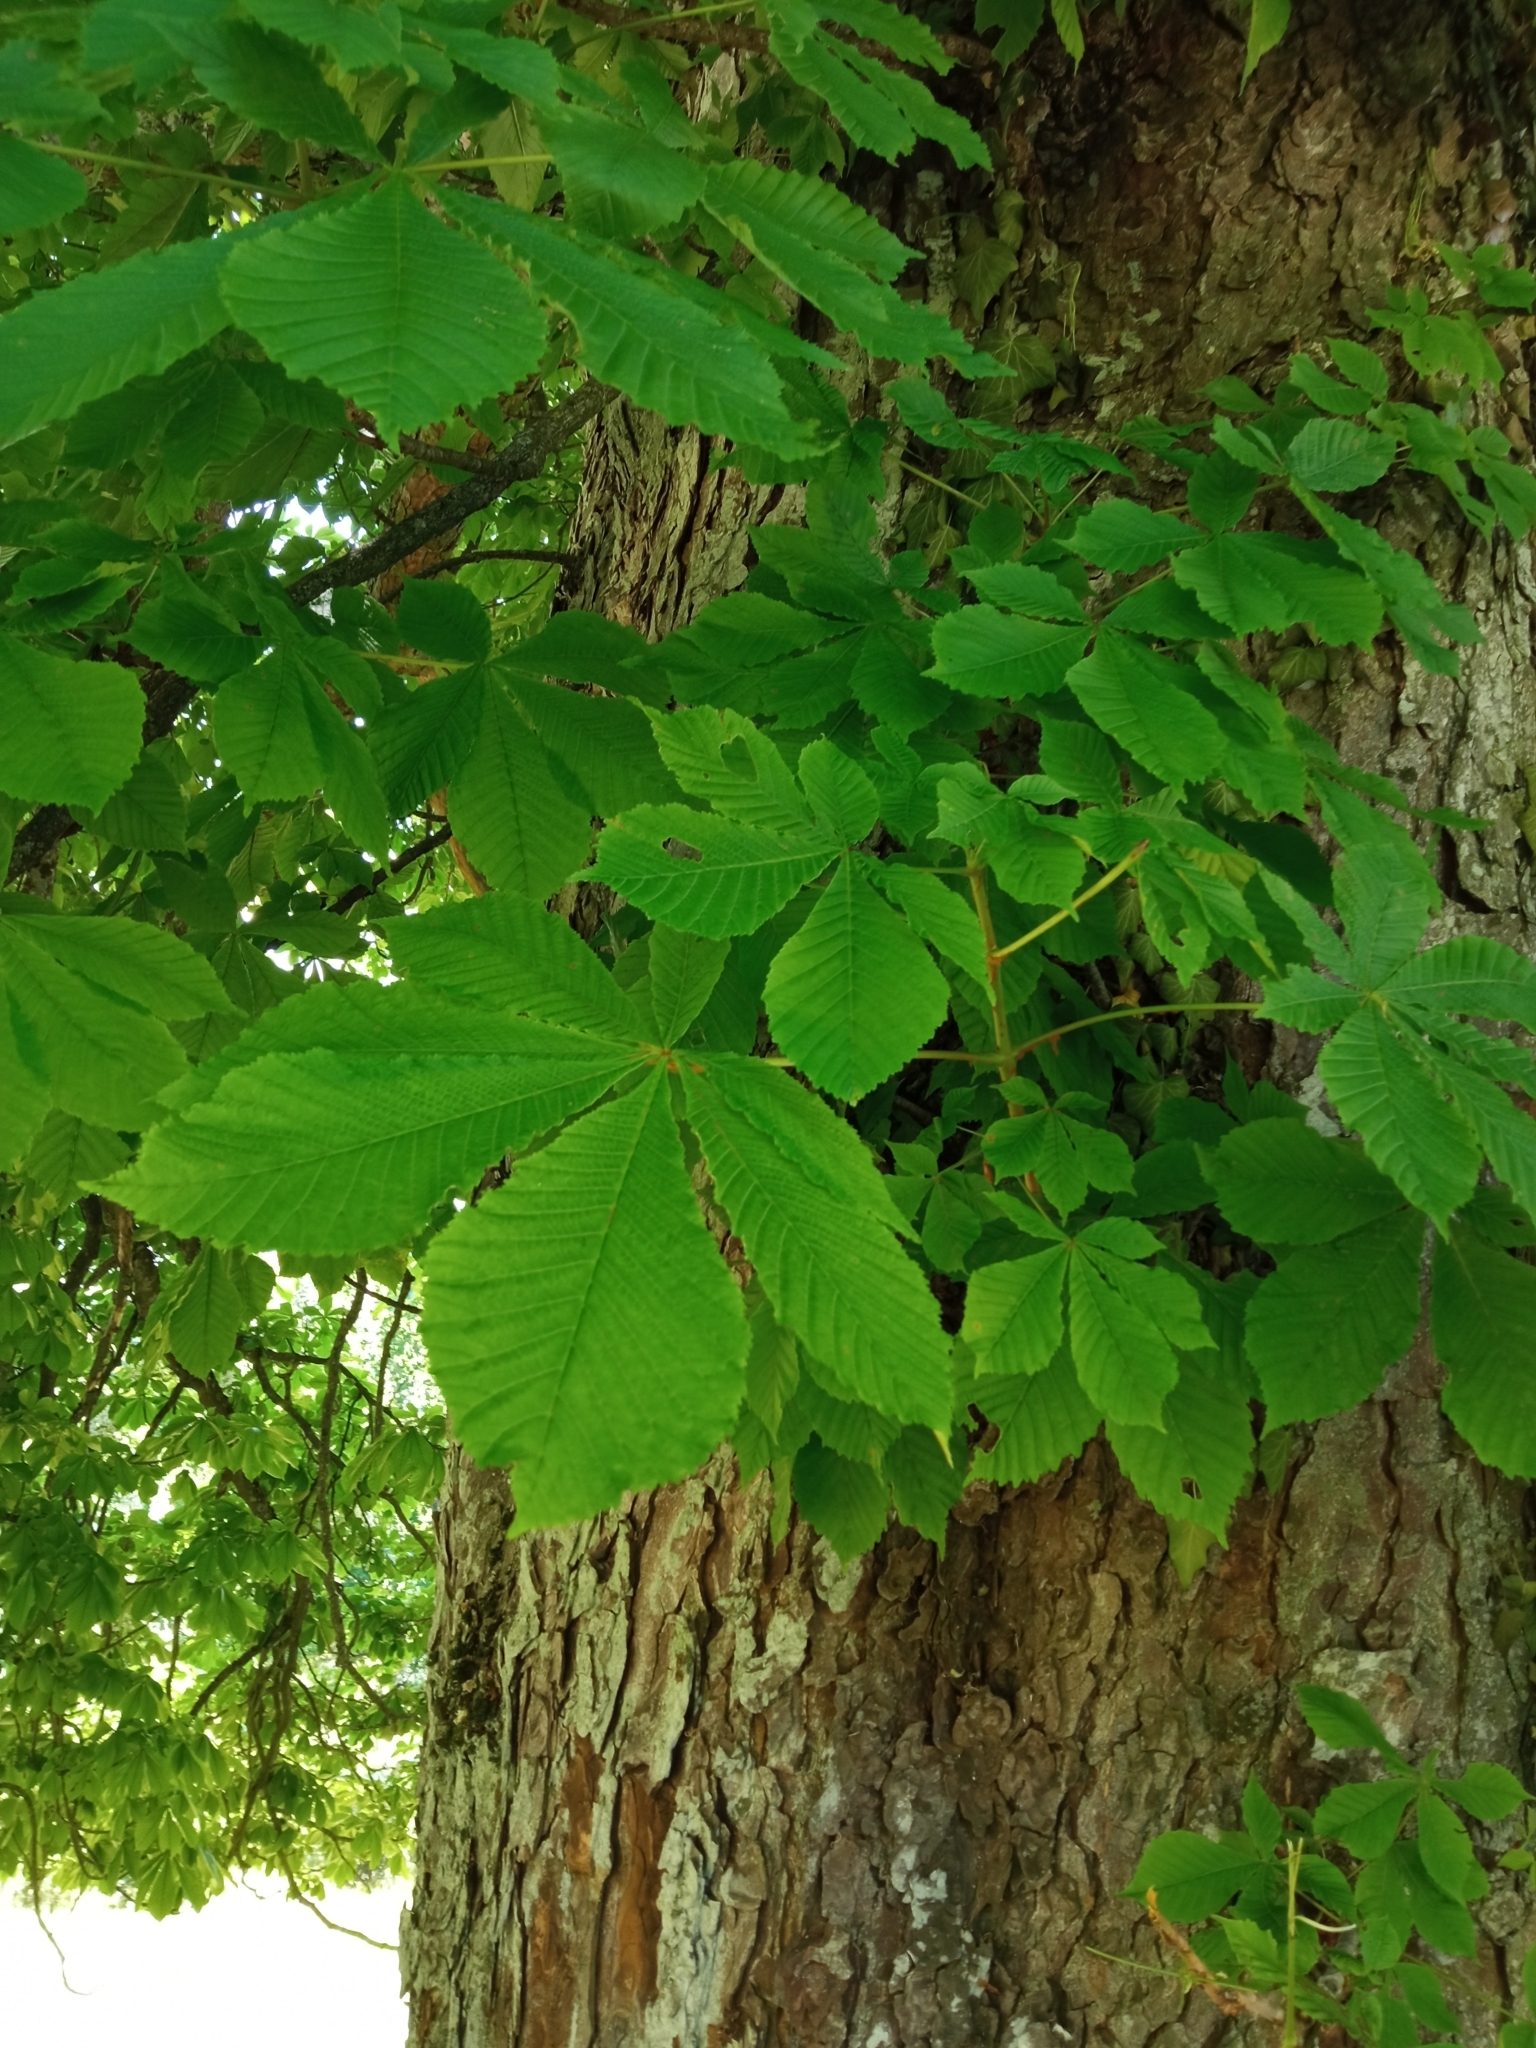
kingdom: Plantae
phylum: Tracheophyta
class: Magnoliopsida
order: Sapindales
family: Sapindaceae
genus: Aesculus
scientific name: Aesculus hippocastanum
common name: Horse-chestnut
